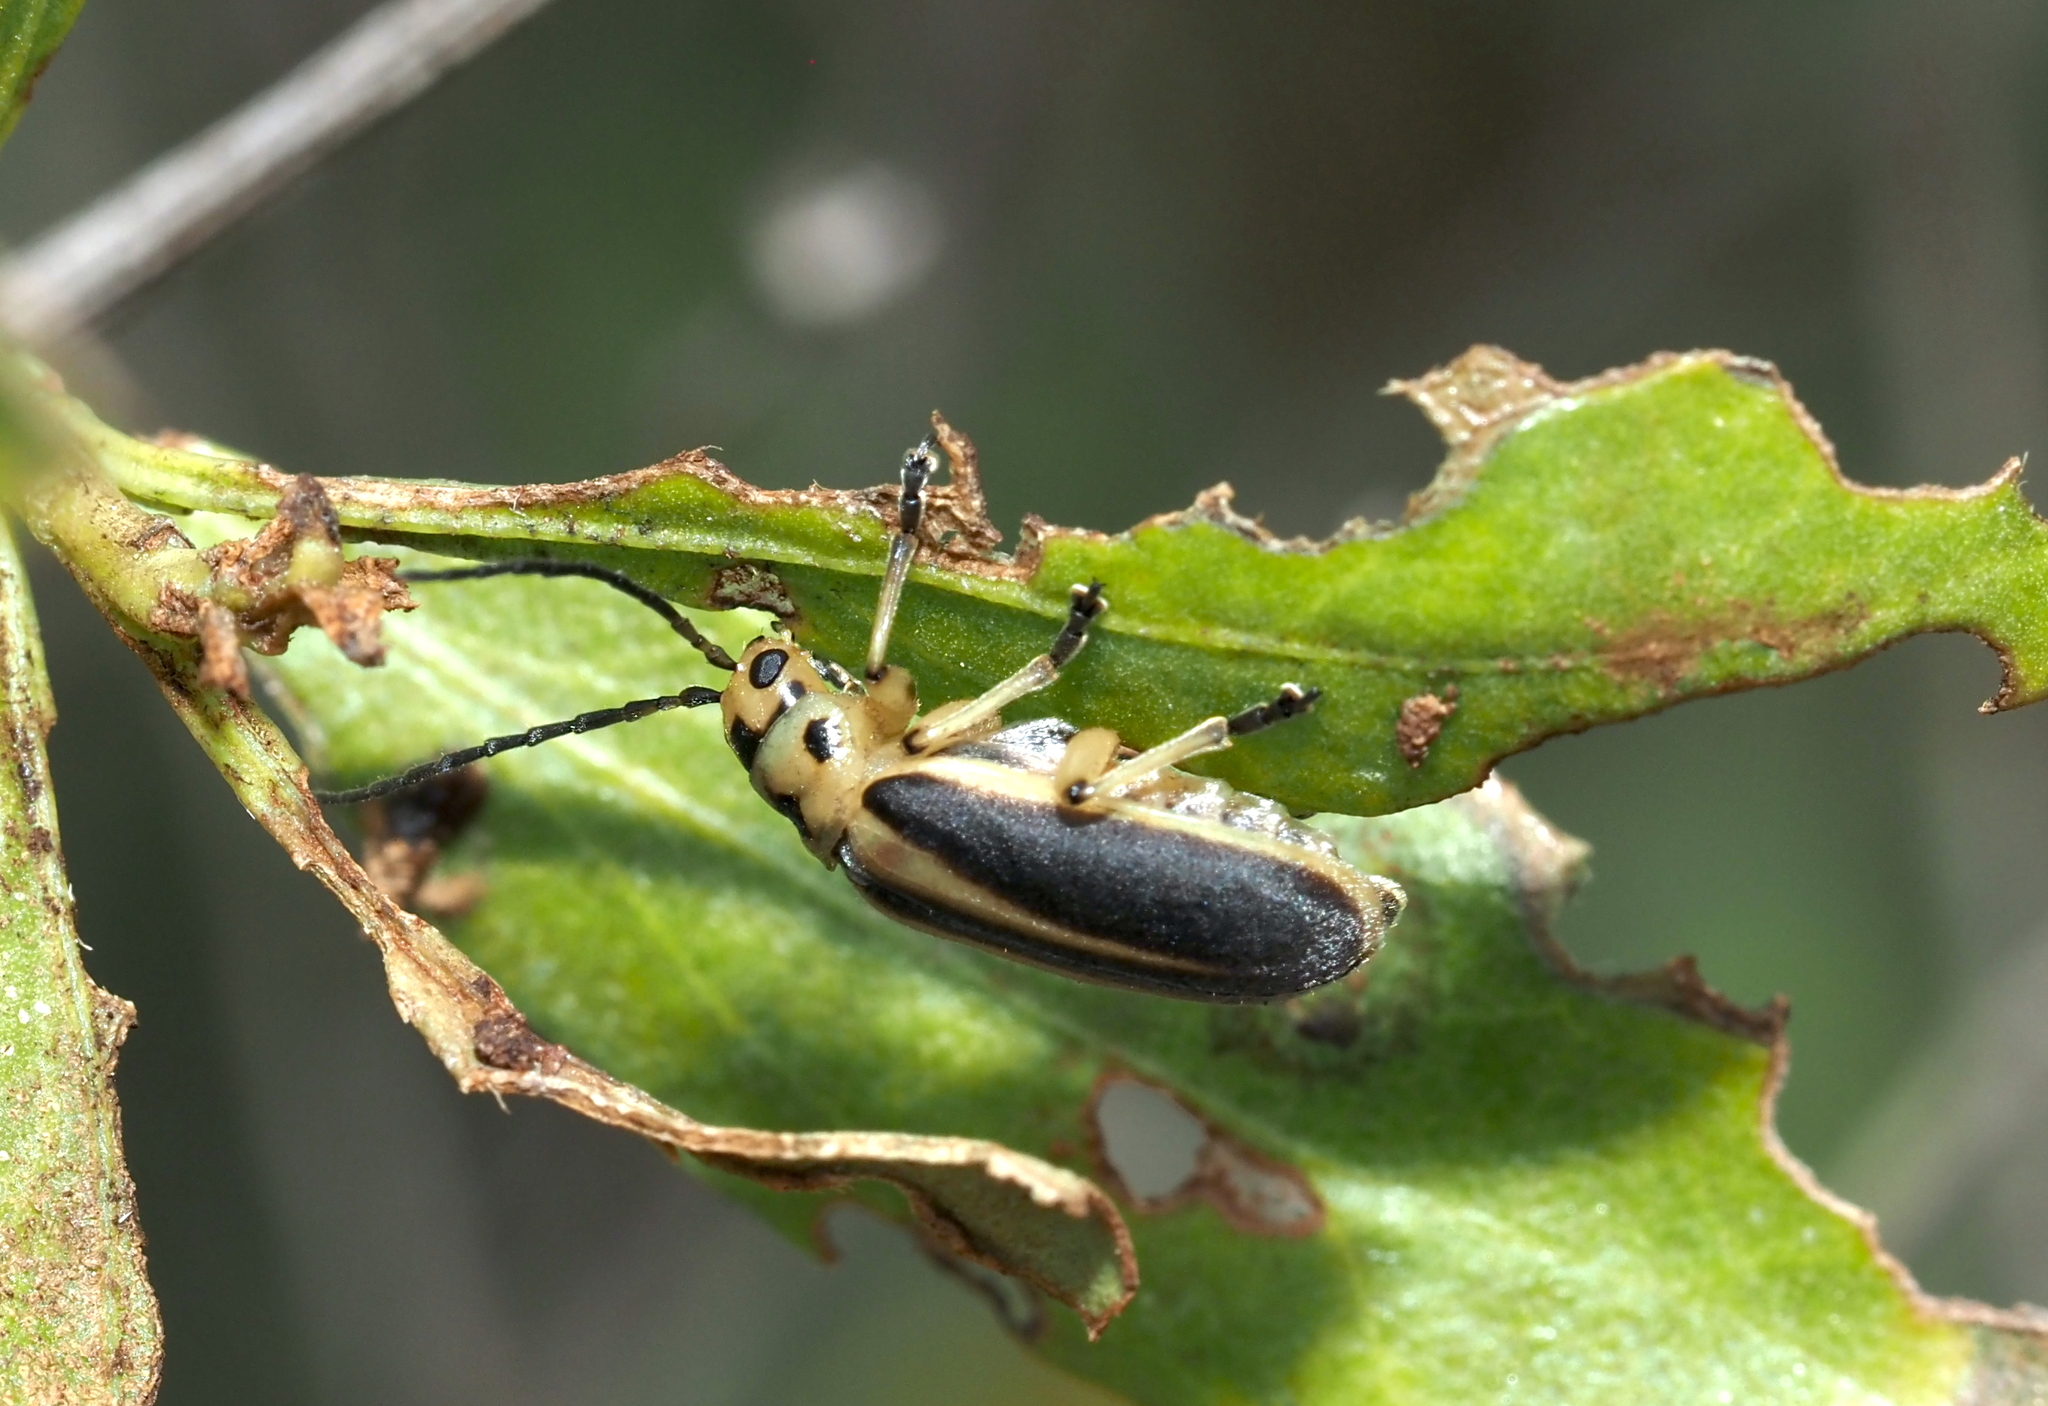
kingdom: Animalia
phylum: Arthropoda
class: Insecta
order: Coleoptera
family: Chrysomelidae
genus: Trirhabda
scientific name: Trirhabda bacharidis
